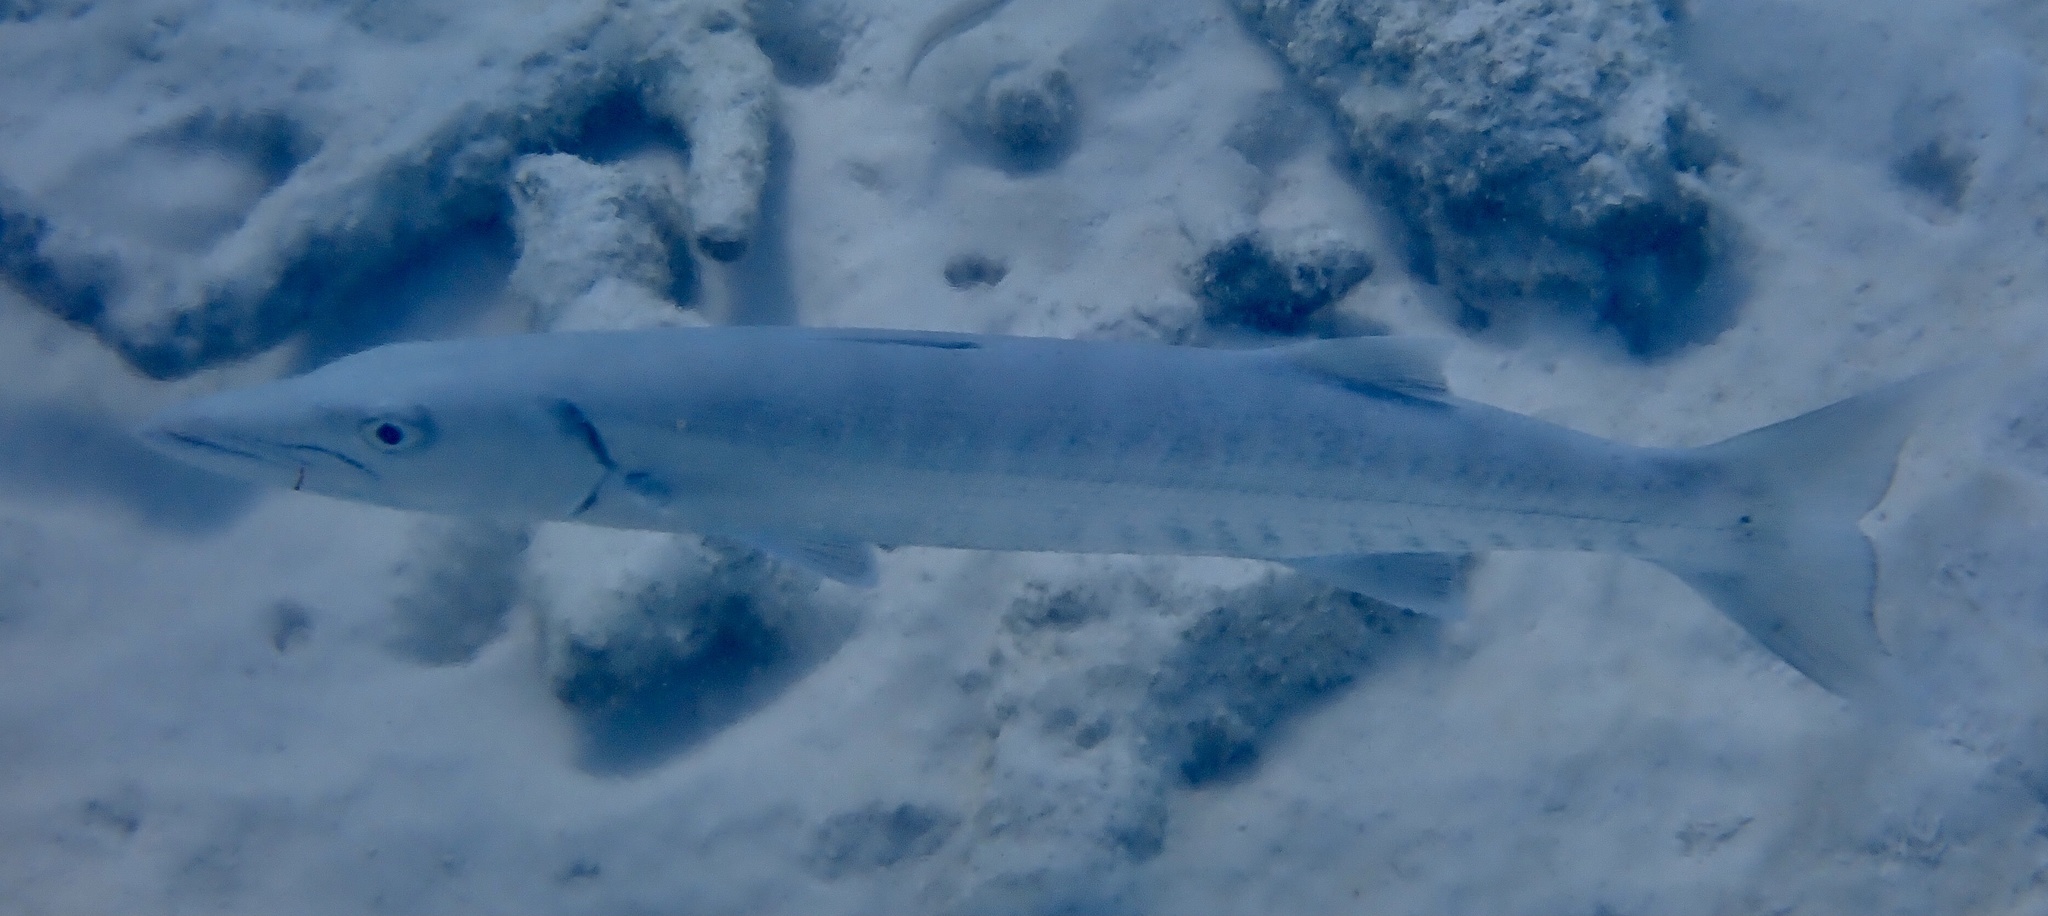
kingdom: Animalia
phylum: Chordata
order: Perciformes
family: Sphyraenidae
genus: Sphyraena
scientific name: Sphyraena barracuda
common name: Great barracuda
